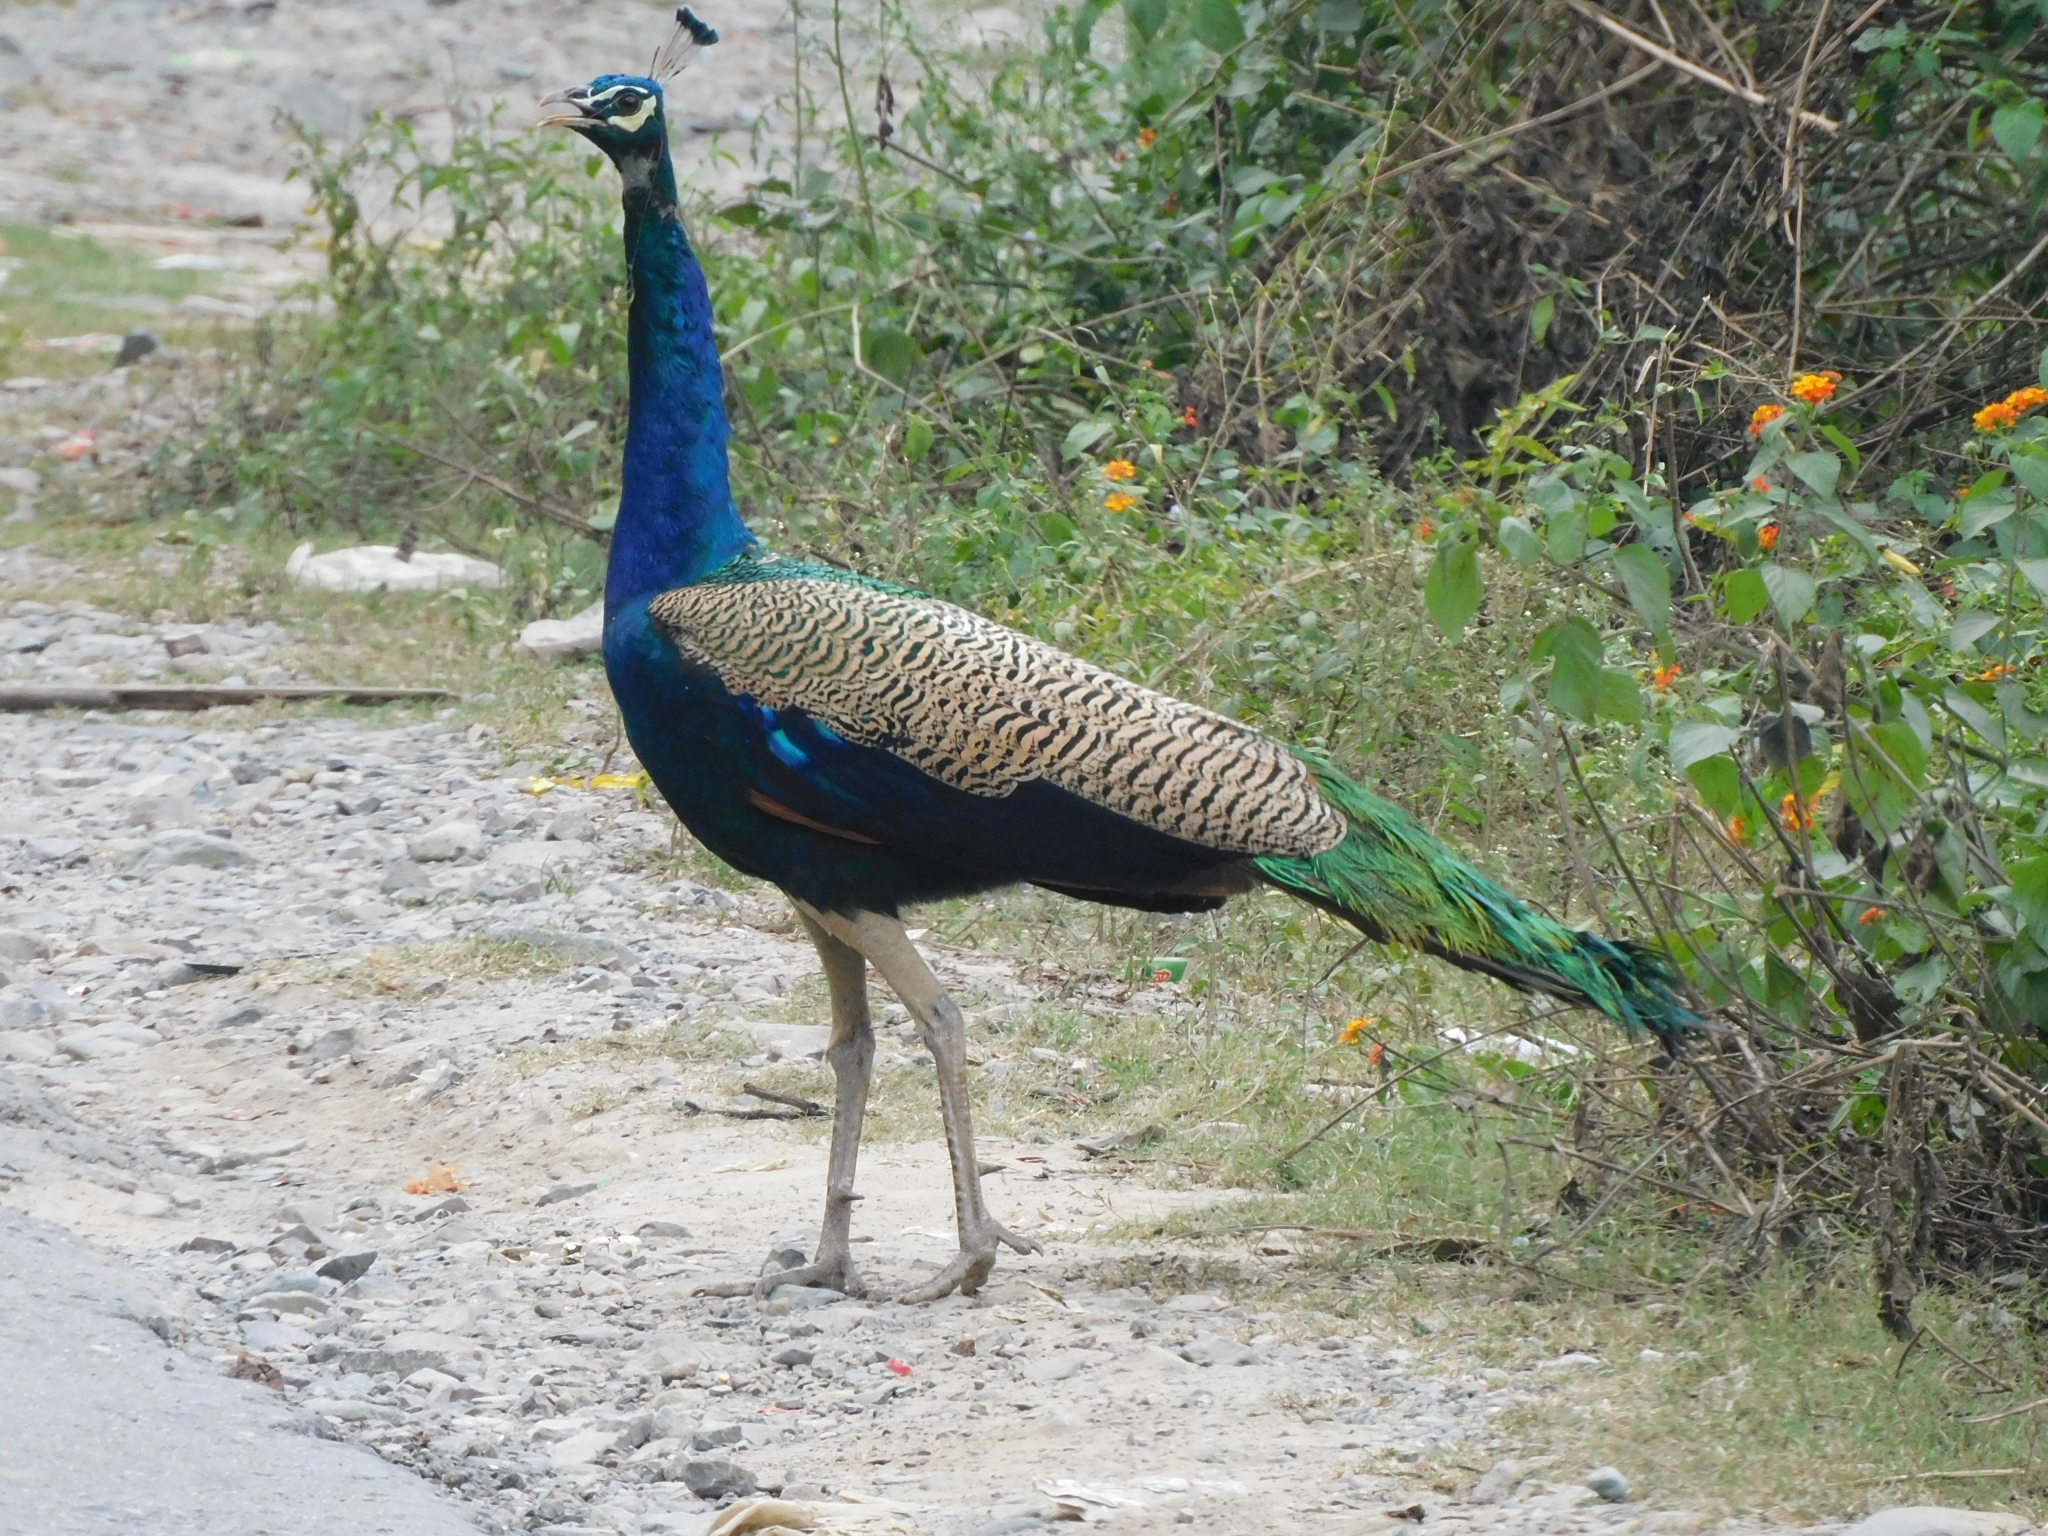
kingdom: Animalia
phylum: Chordata
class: Aves
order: Galliformes
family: Phasianidae
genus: Pavo
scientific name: Pavo cristatus
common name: Indian peafowl
